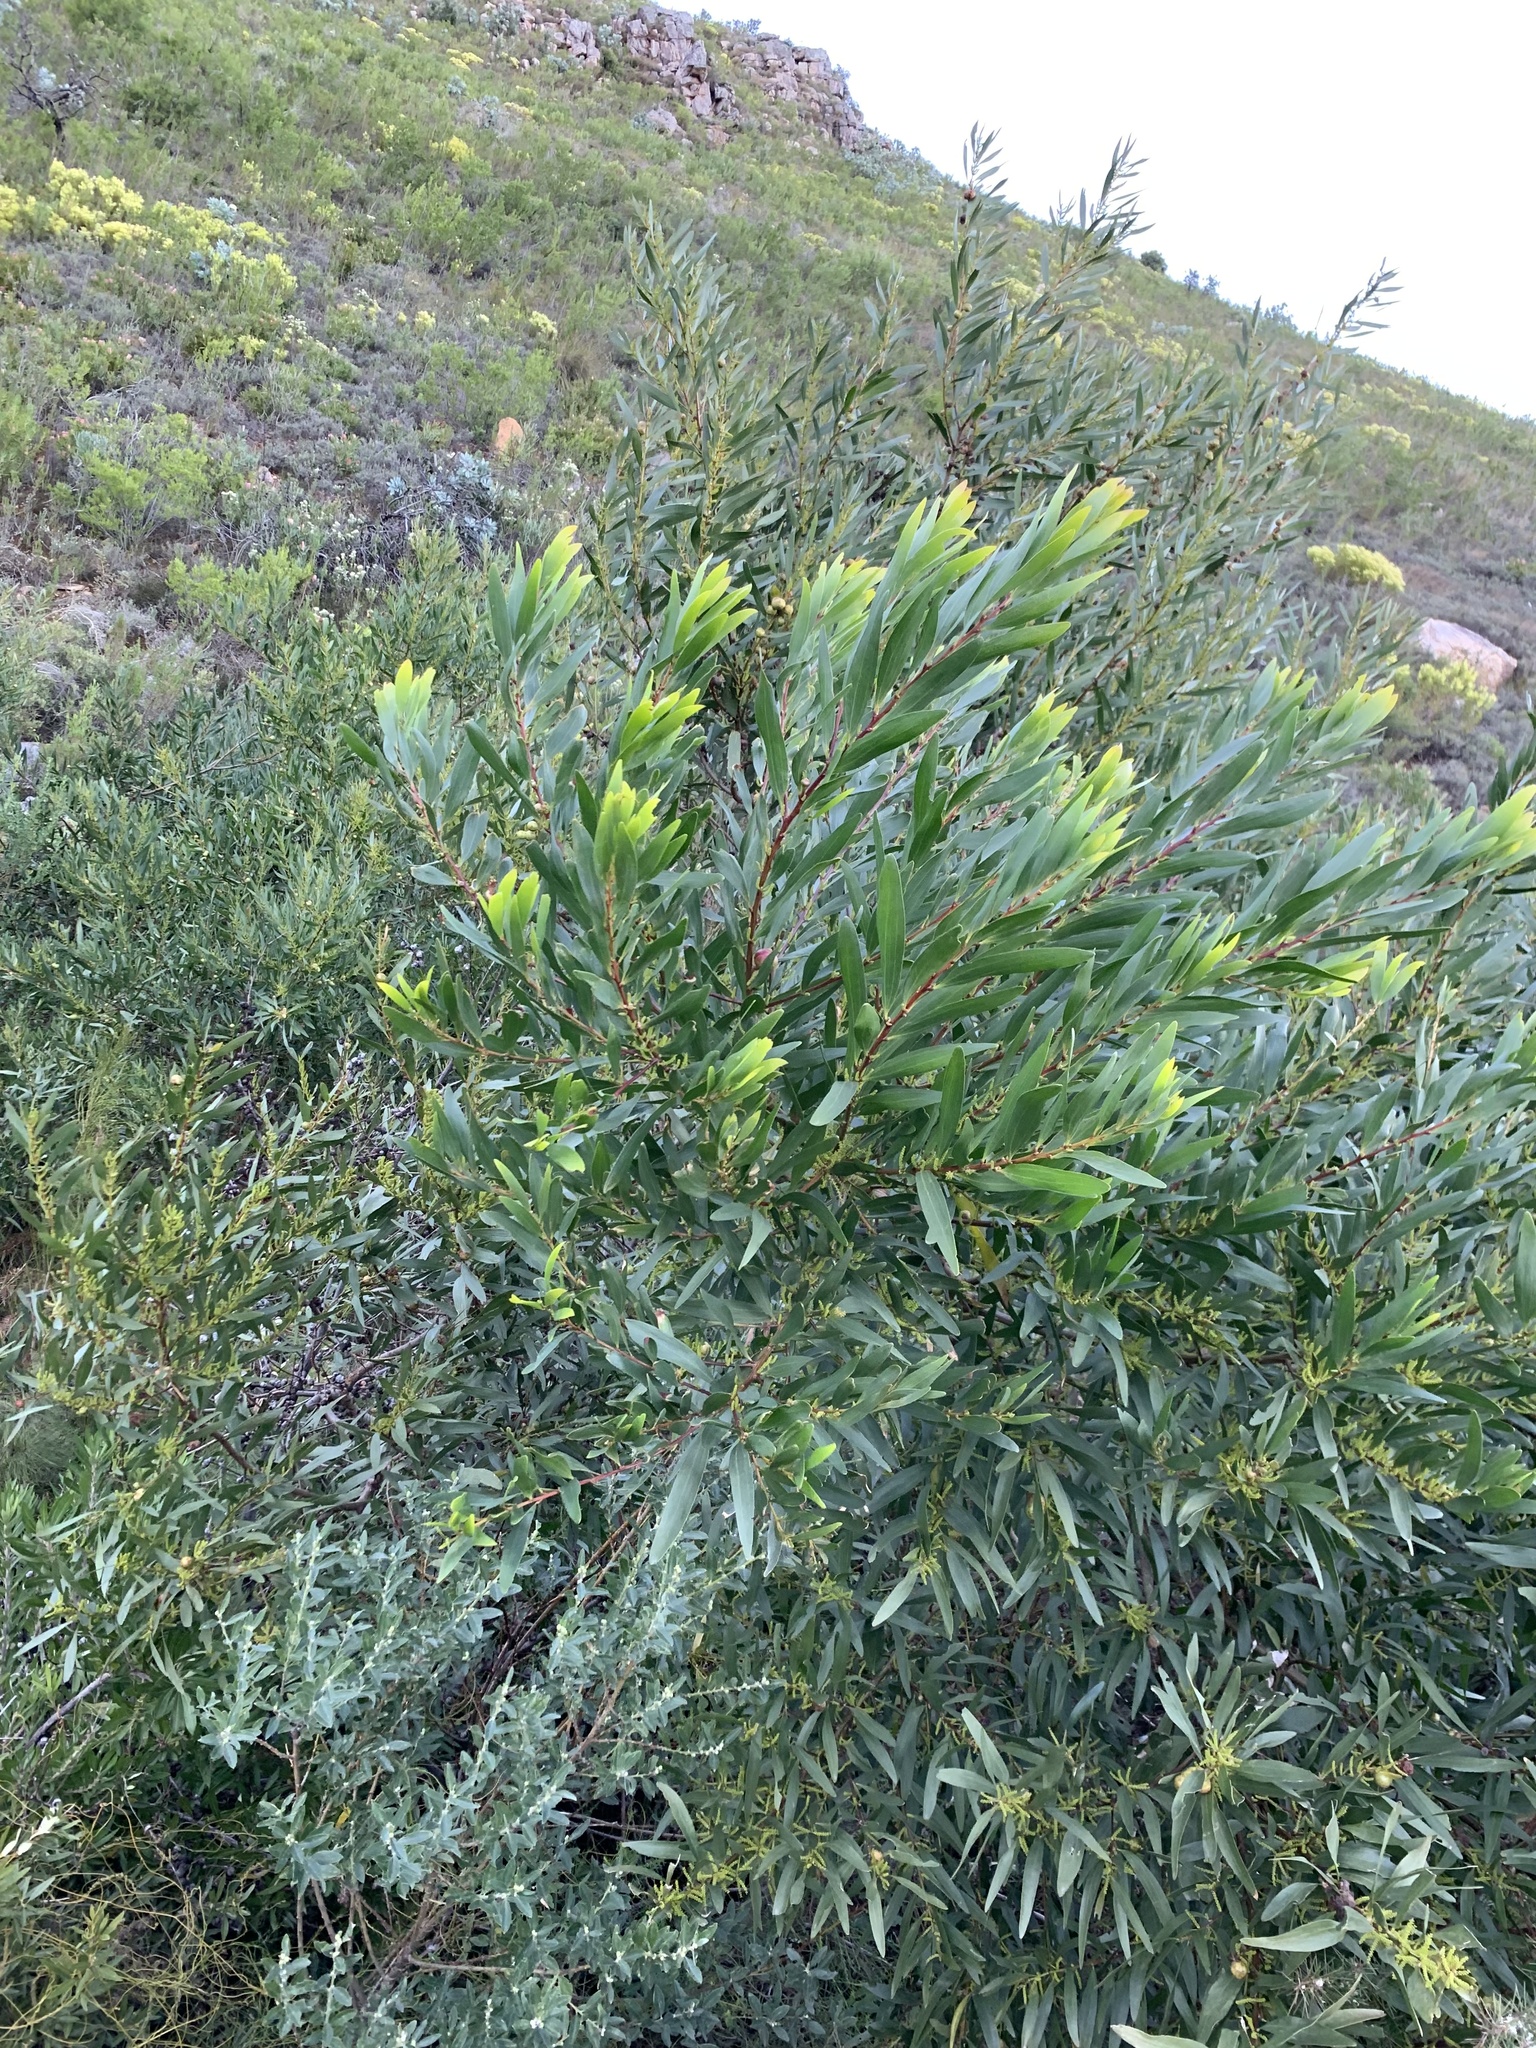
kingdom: Plantae
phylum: Tracheophyta
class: Magnoliopsida
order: Fabales
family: Fabaceae
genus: Acacia
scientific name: Acacia longifolia
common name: Sydney golden wattle
